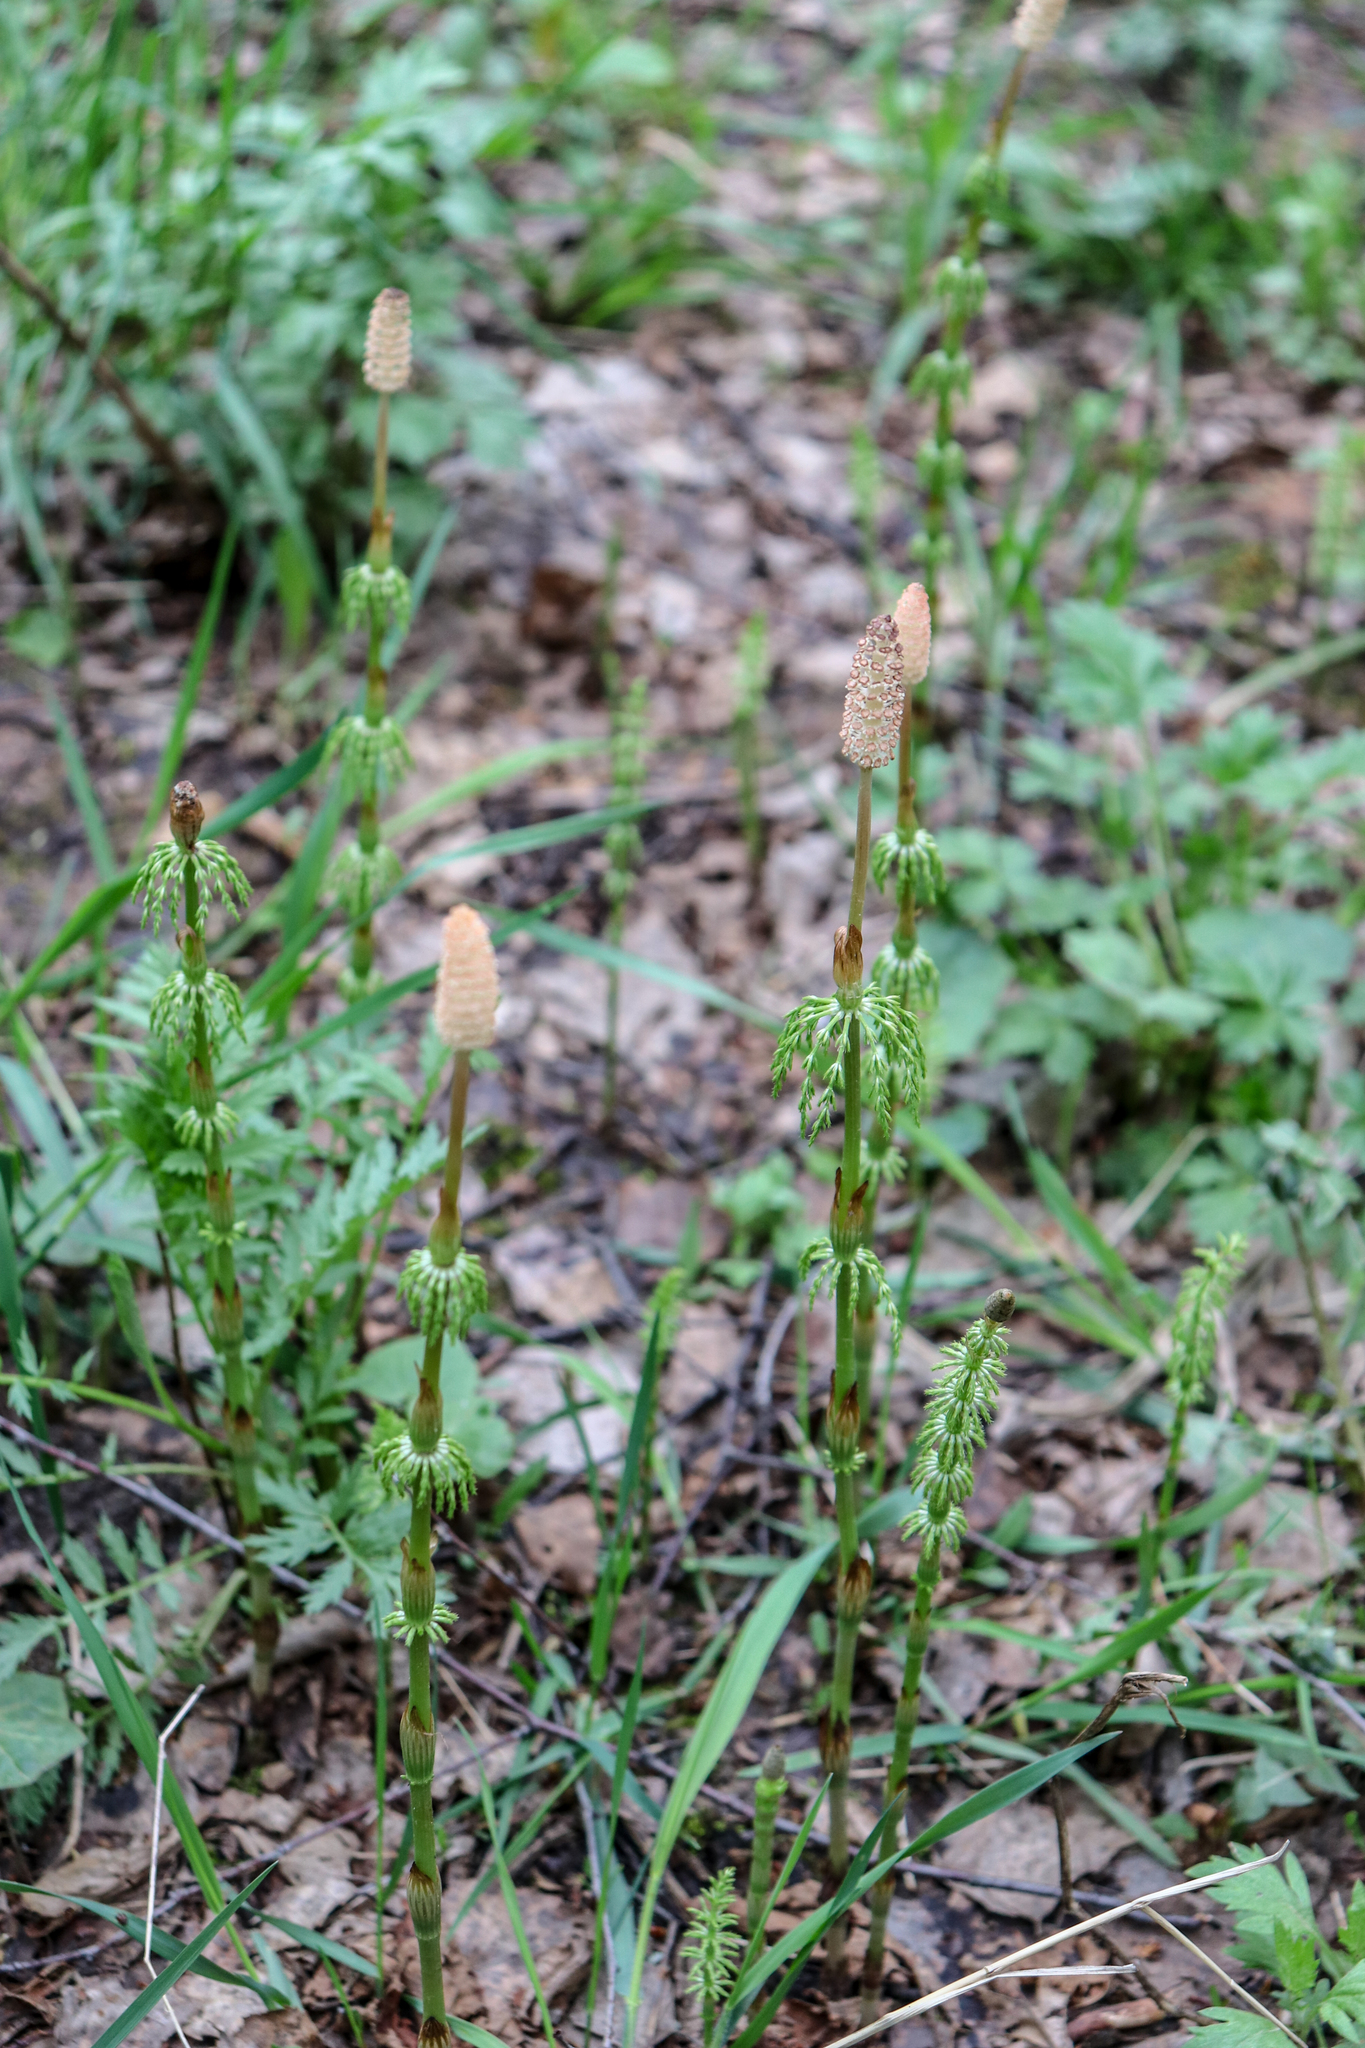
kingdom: Plantae
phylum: Tracheophyta
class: Polypodiopsida
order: Equisetales
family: Equisetaceae
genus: Equisetum
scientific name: Equisetum sylvaticum
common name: Wood horsetail
